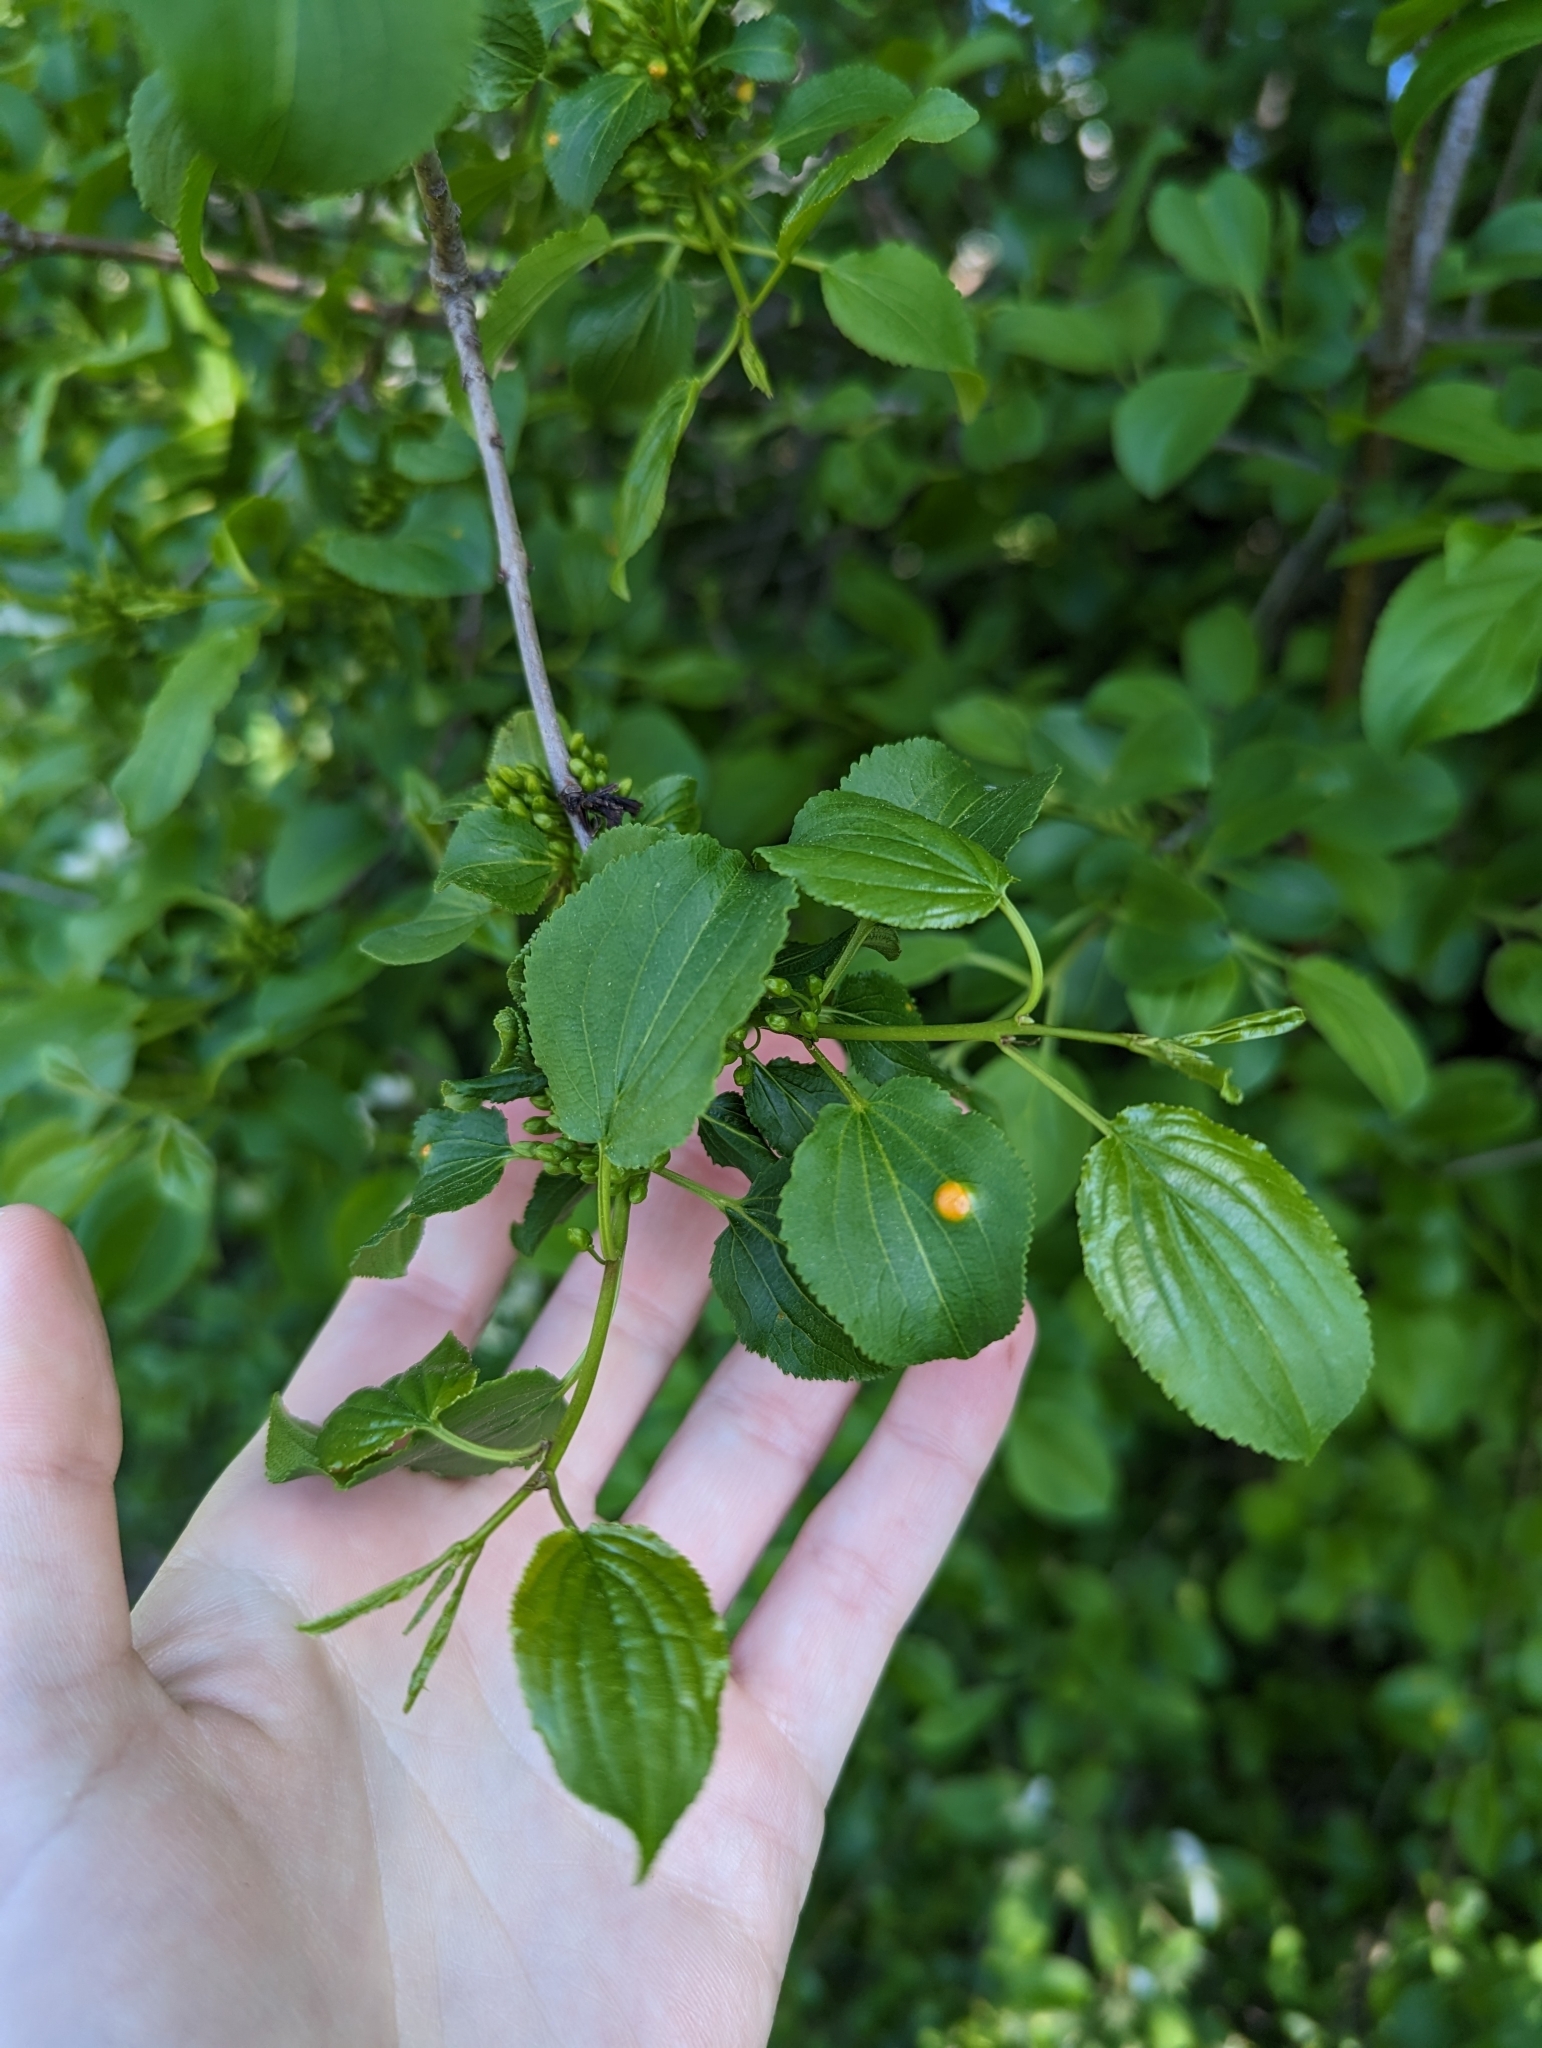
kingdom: Plantae
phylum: Tracheophyta
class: Magnoliopsida
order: Rosales
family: Rhamnaceae
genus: Rhamnus
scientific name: Rhamnus cathartica
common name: Common buckthorn
